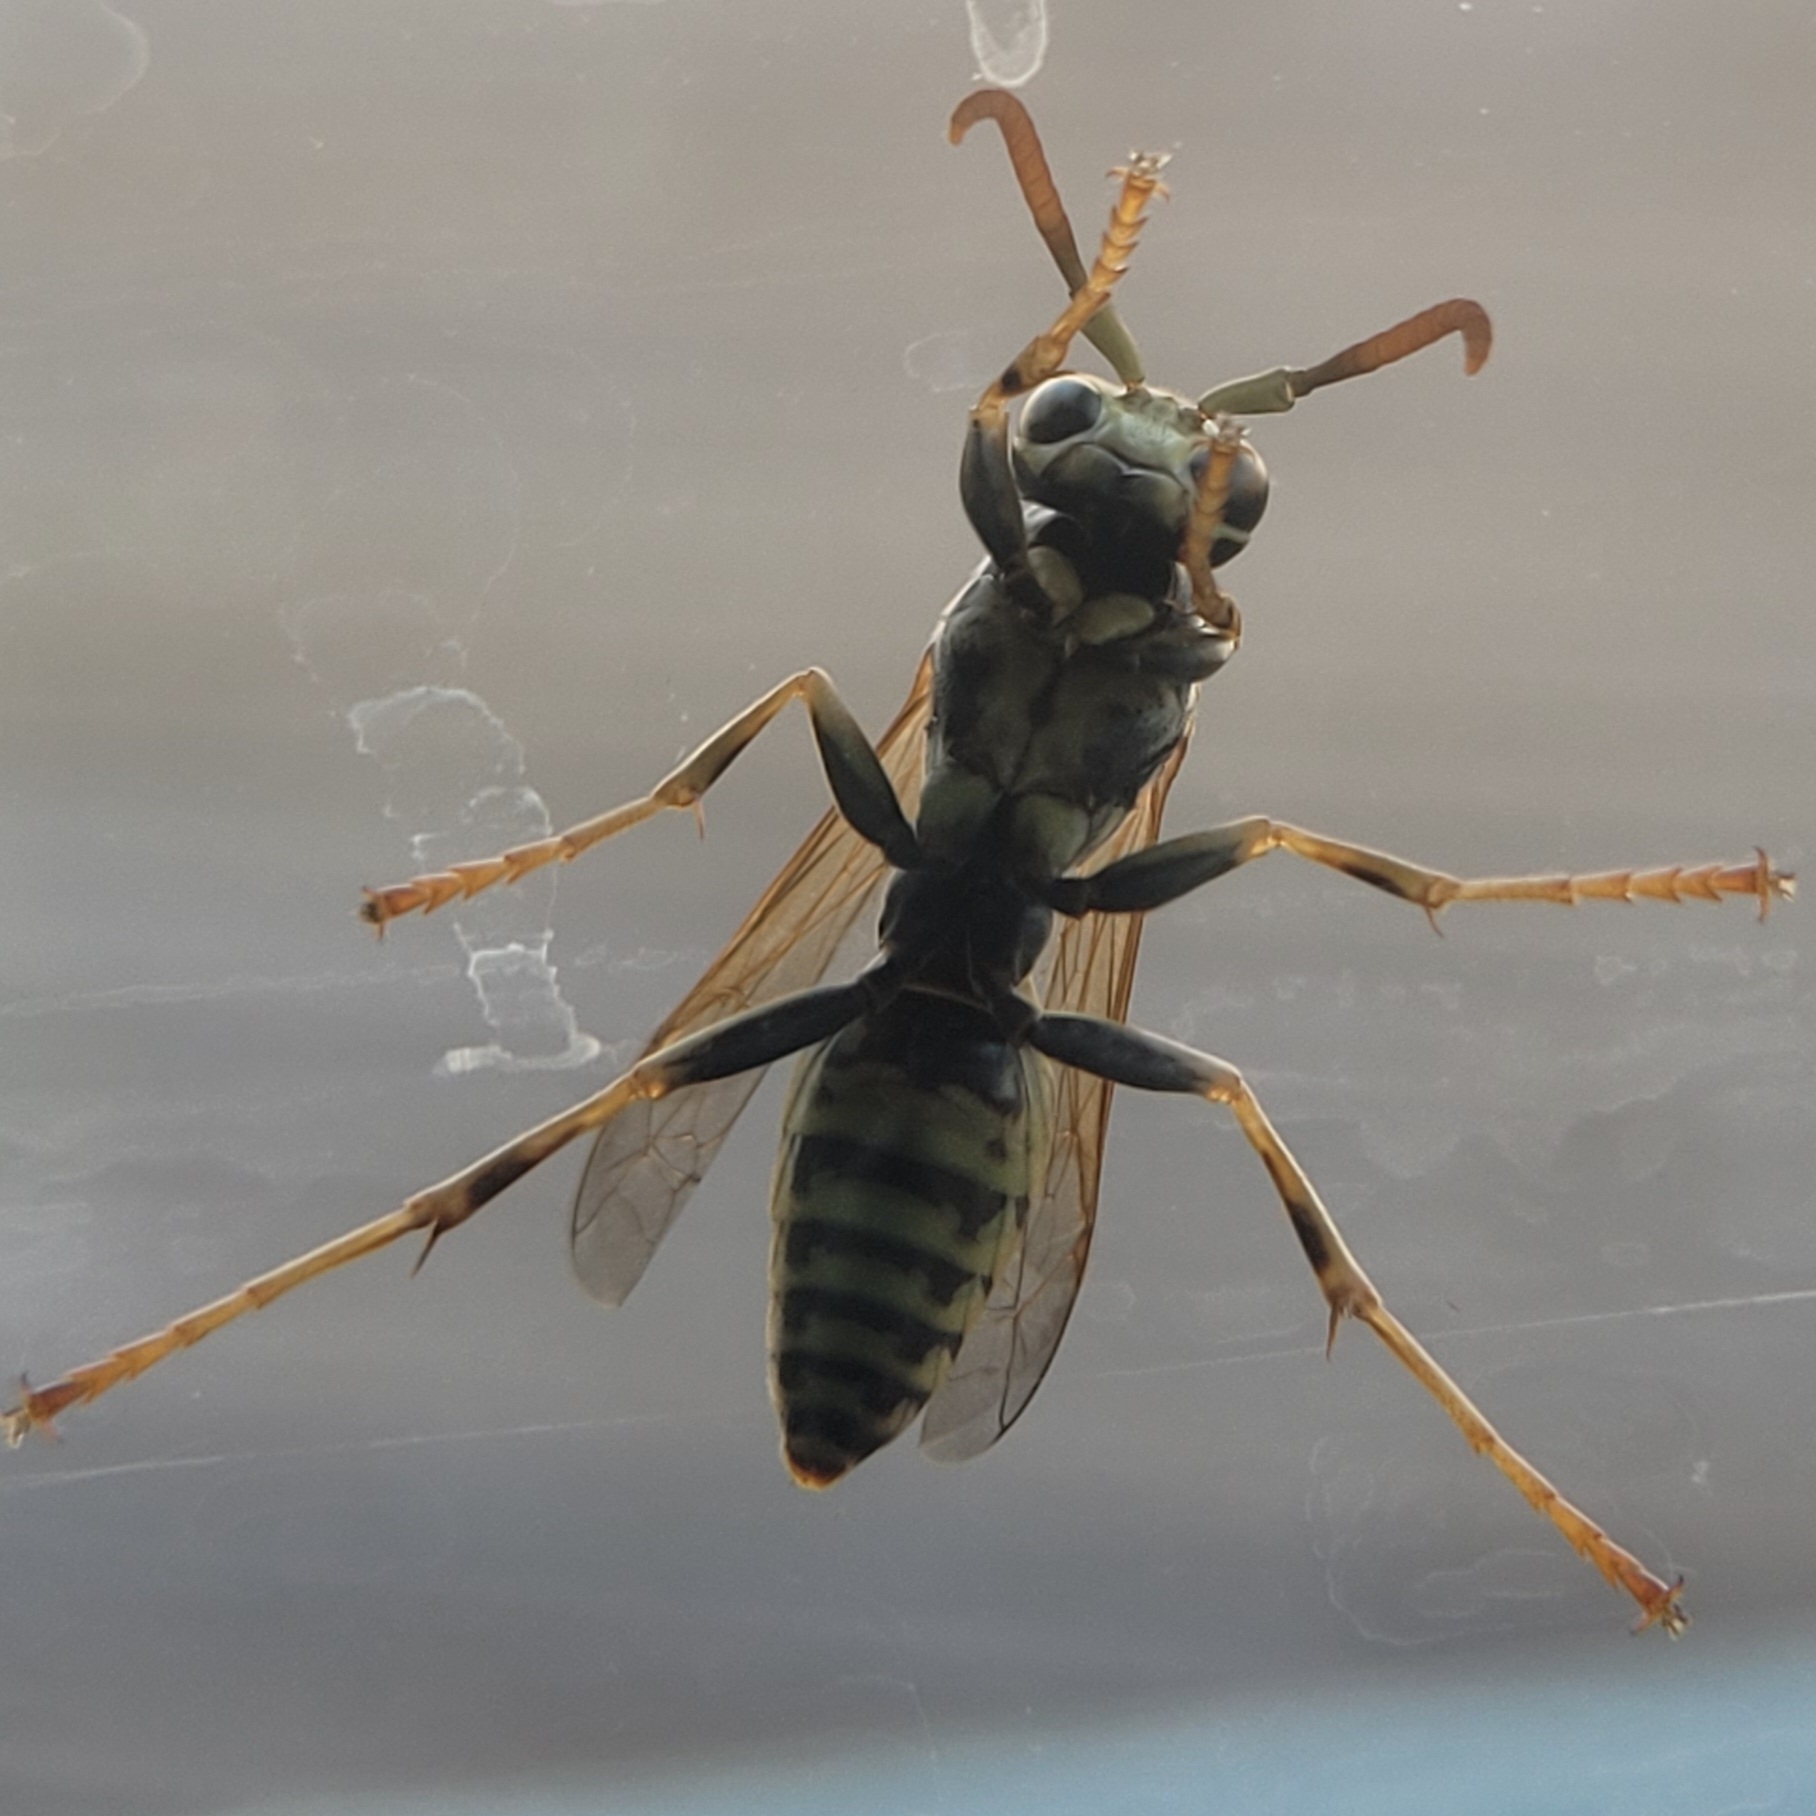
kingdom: Animalia
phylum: Arthropoda
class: Insecta
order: Hymenoptera
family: Eumenidae
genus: Polistes
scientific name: Polistes dominula
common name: Paper wasp
